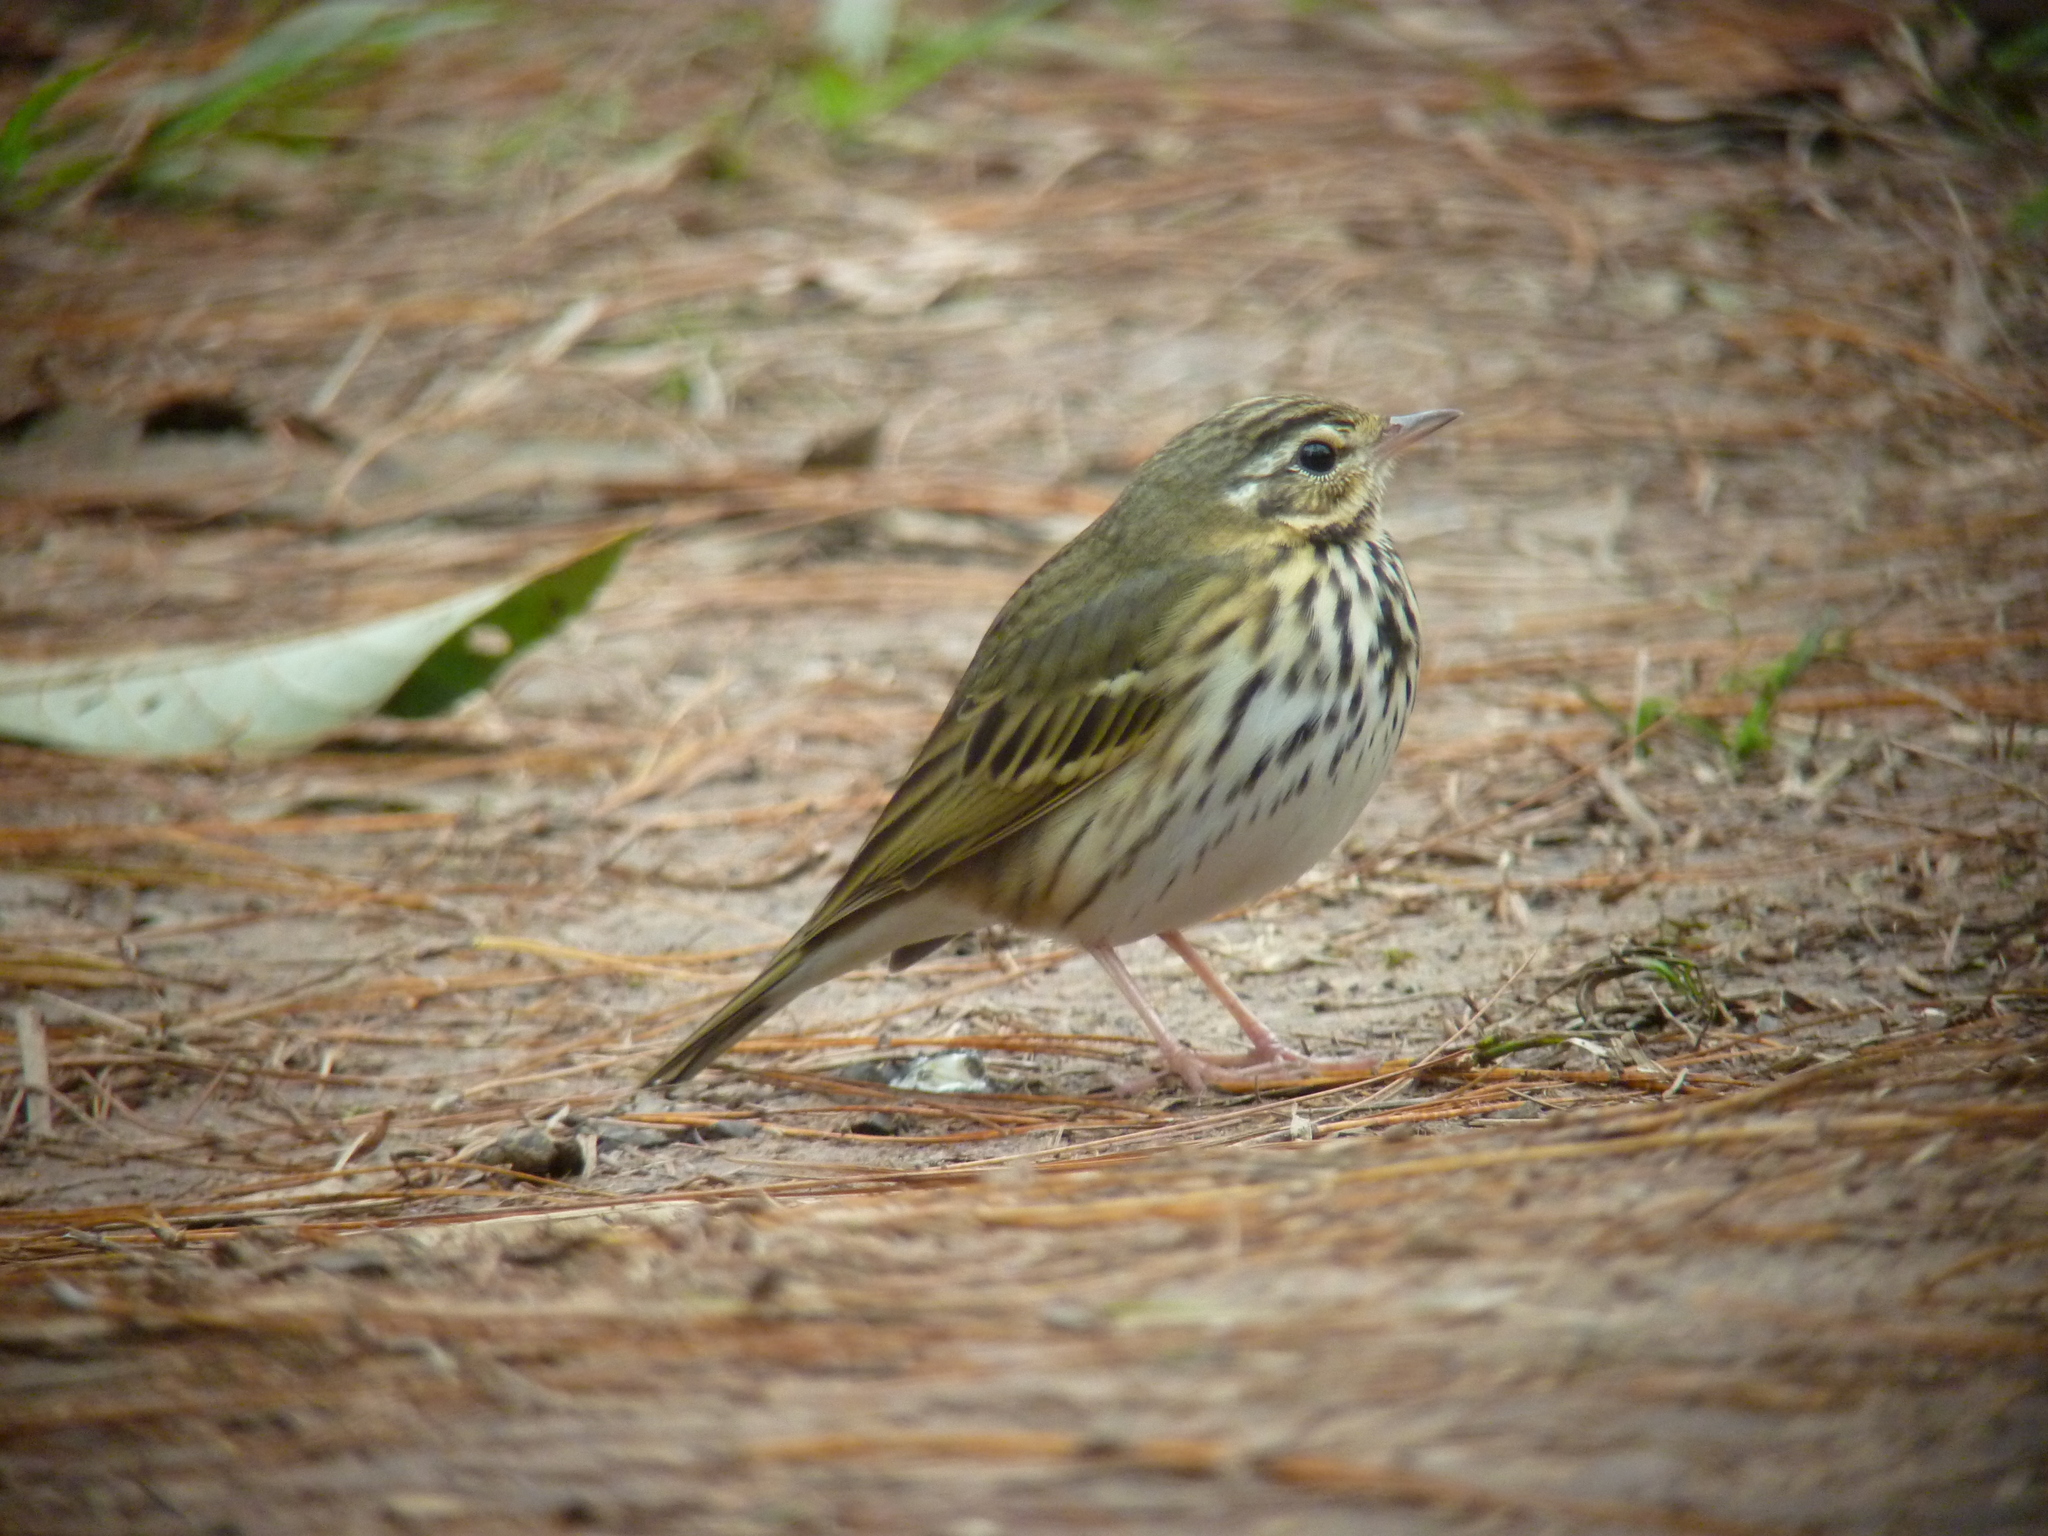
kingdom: Animalia
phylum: Chordata
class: Aves
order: Passeriformes
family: Motacillidae
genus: Anthus
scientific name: Anthus hodgsoni
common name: Olive-backed pipit
